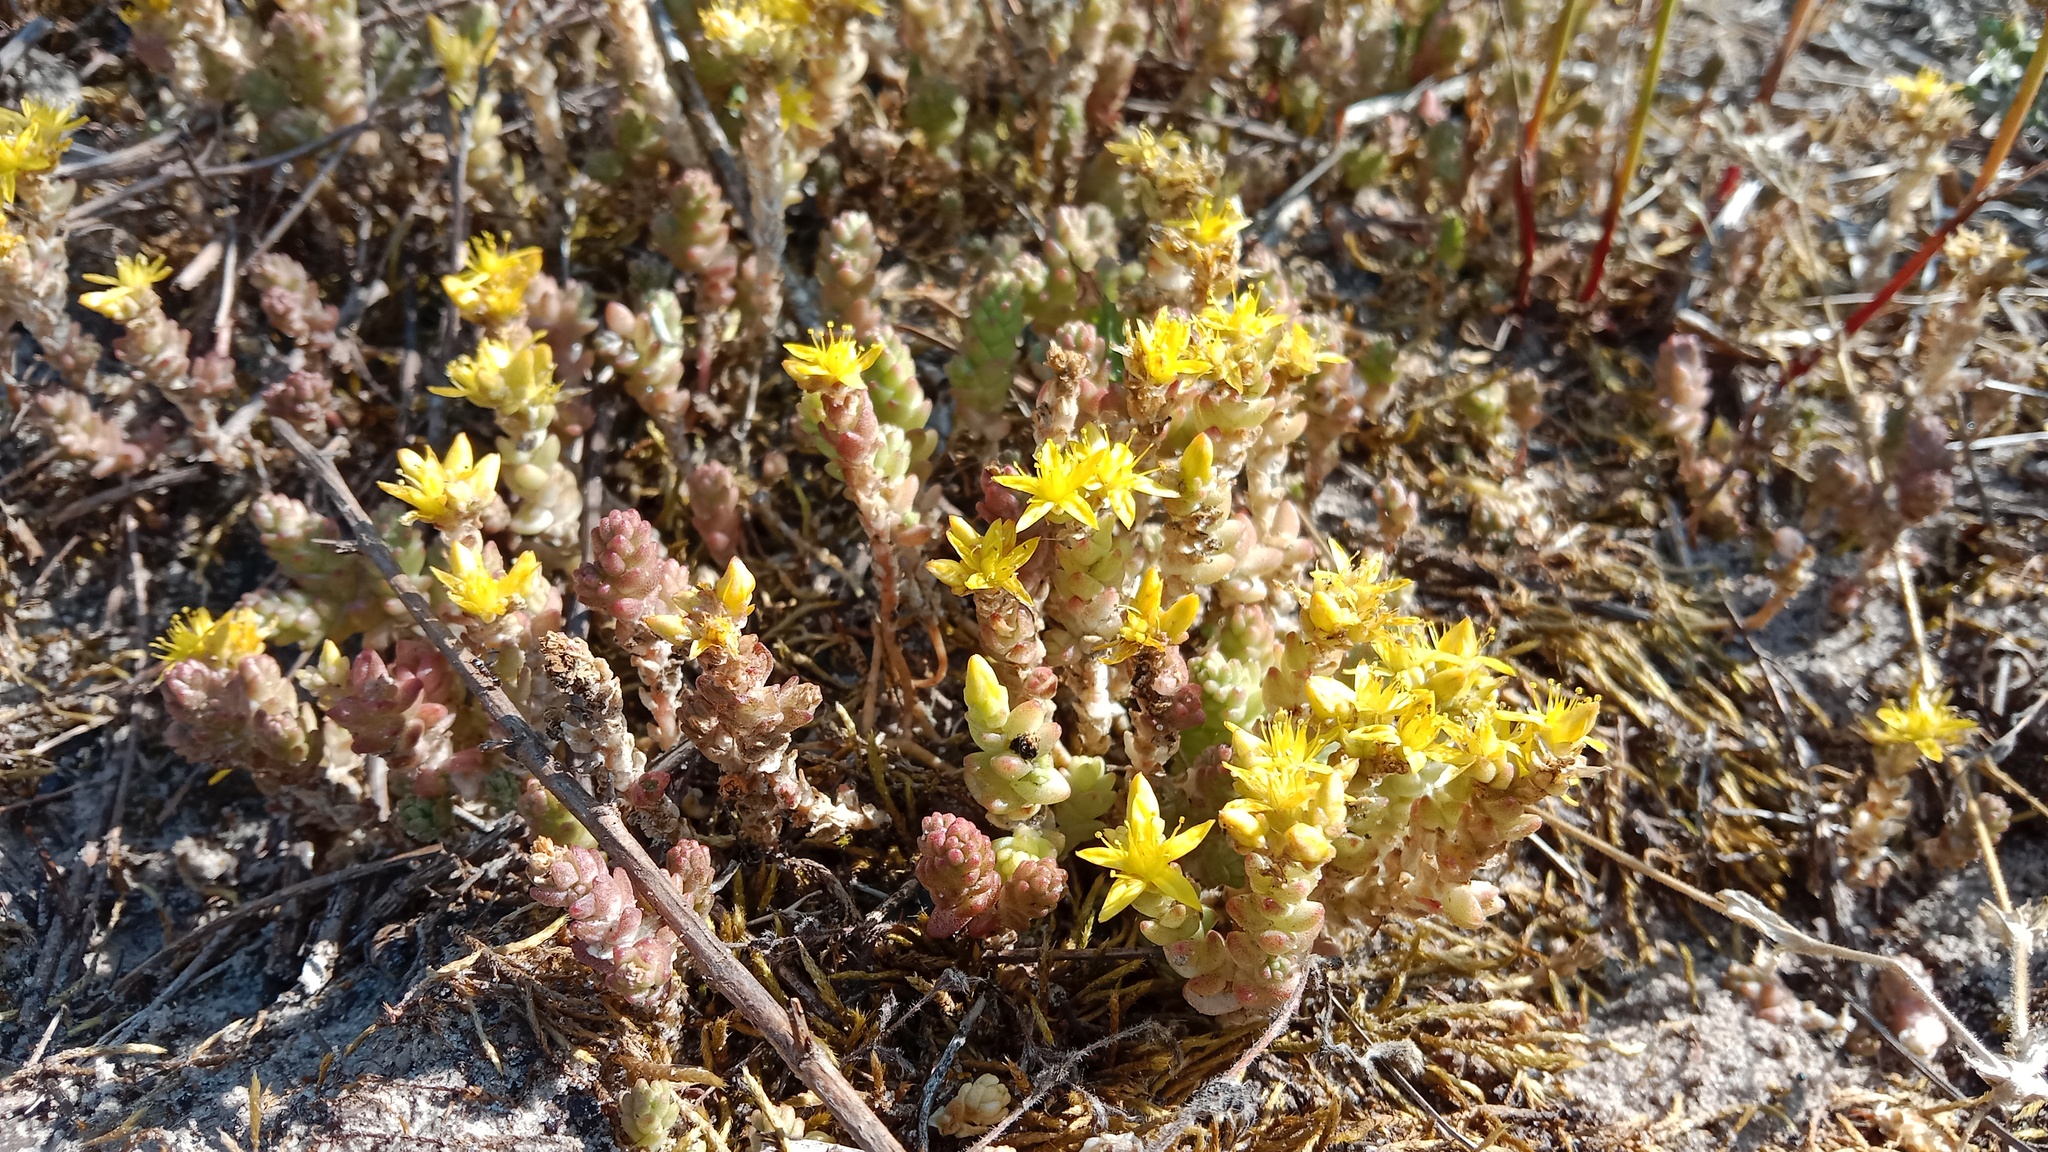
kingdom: Plantae
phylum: Tracheophyta
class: Magnoliopsida
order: Saxifragales
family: Crassulaceae
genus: Sedum
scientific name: Sedum acre
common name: Biting stonecrop
